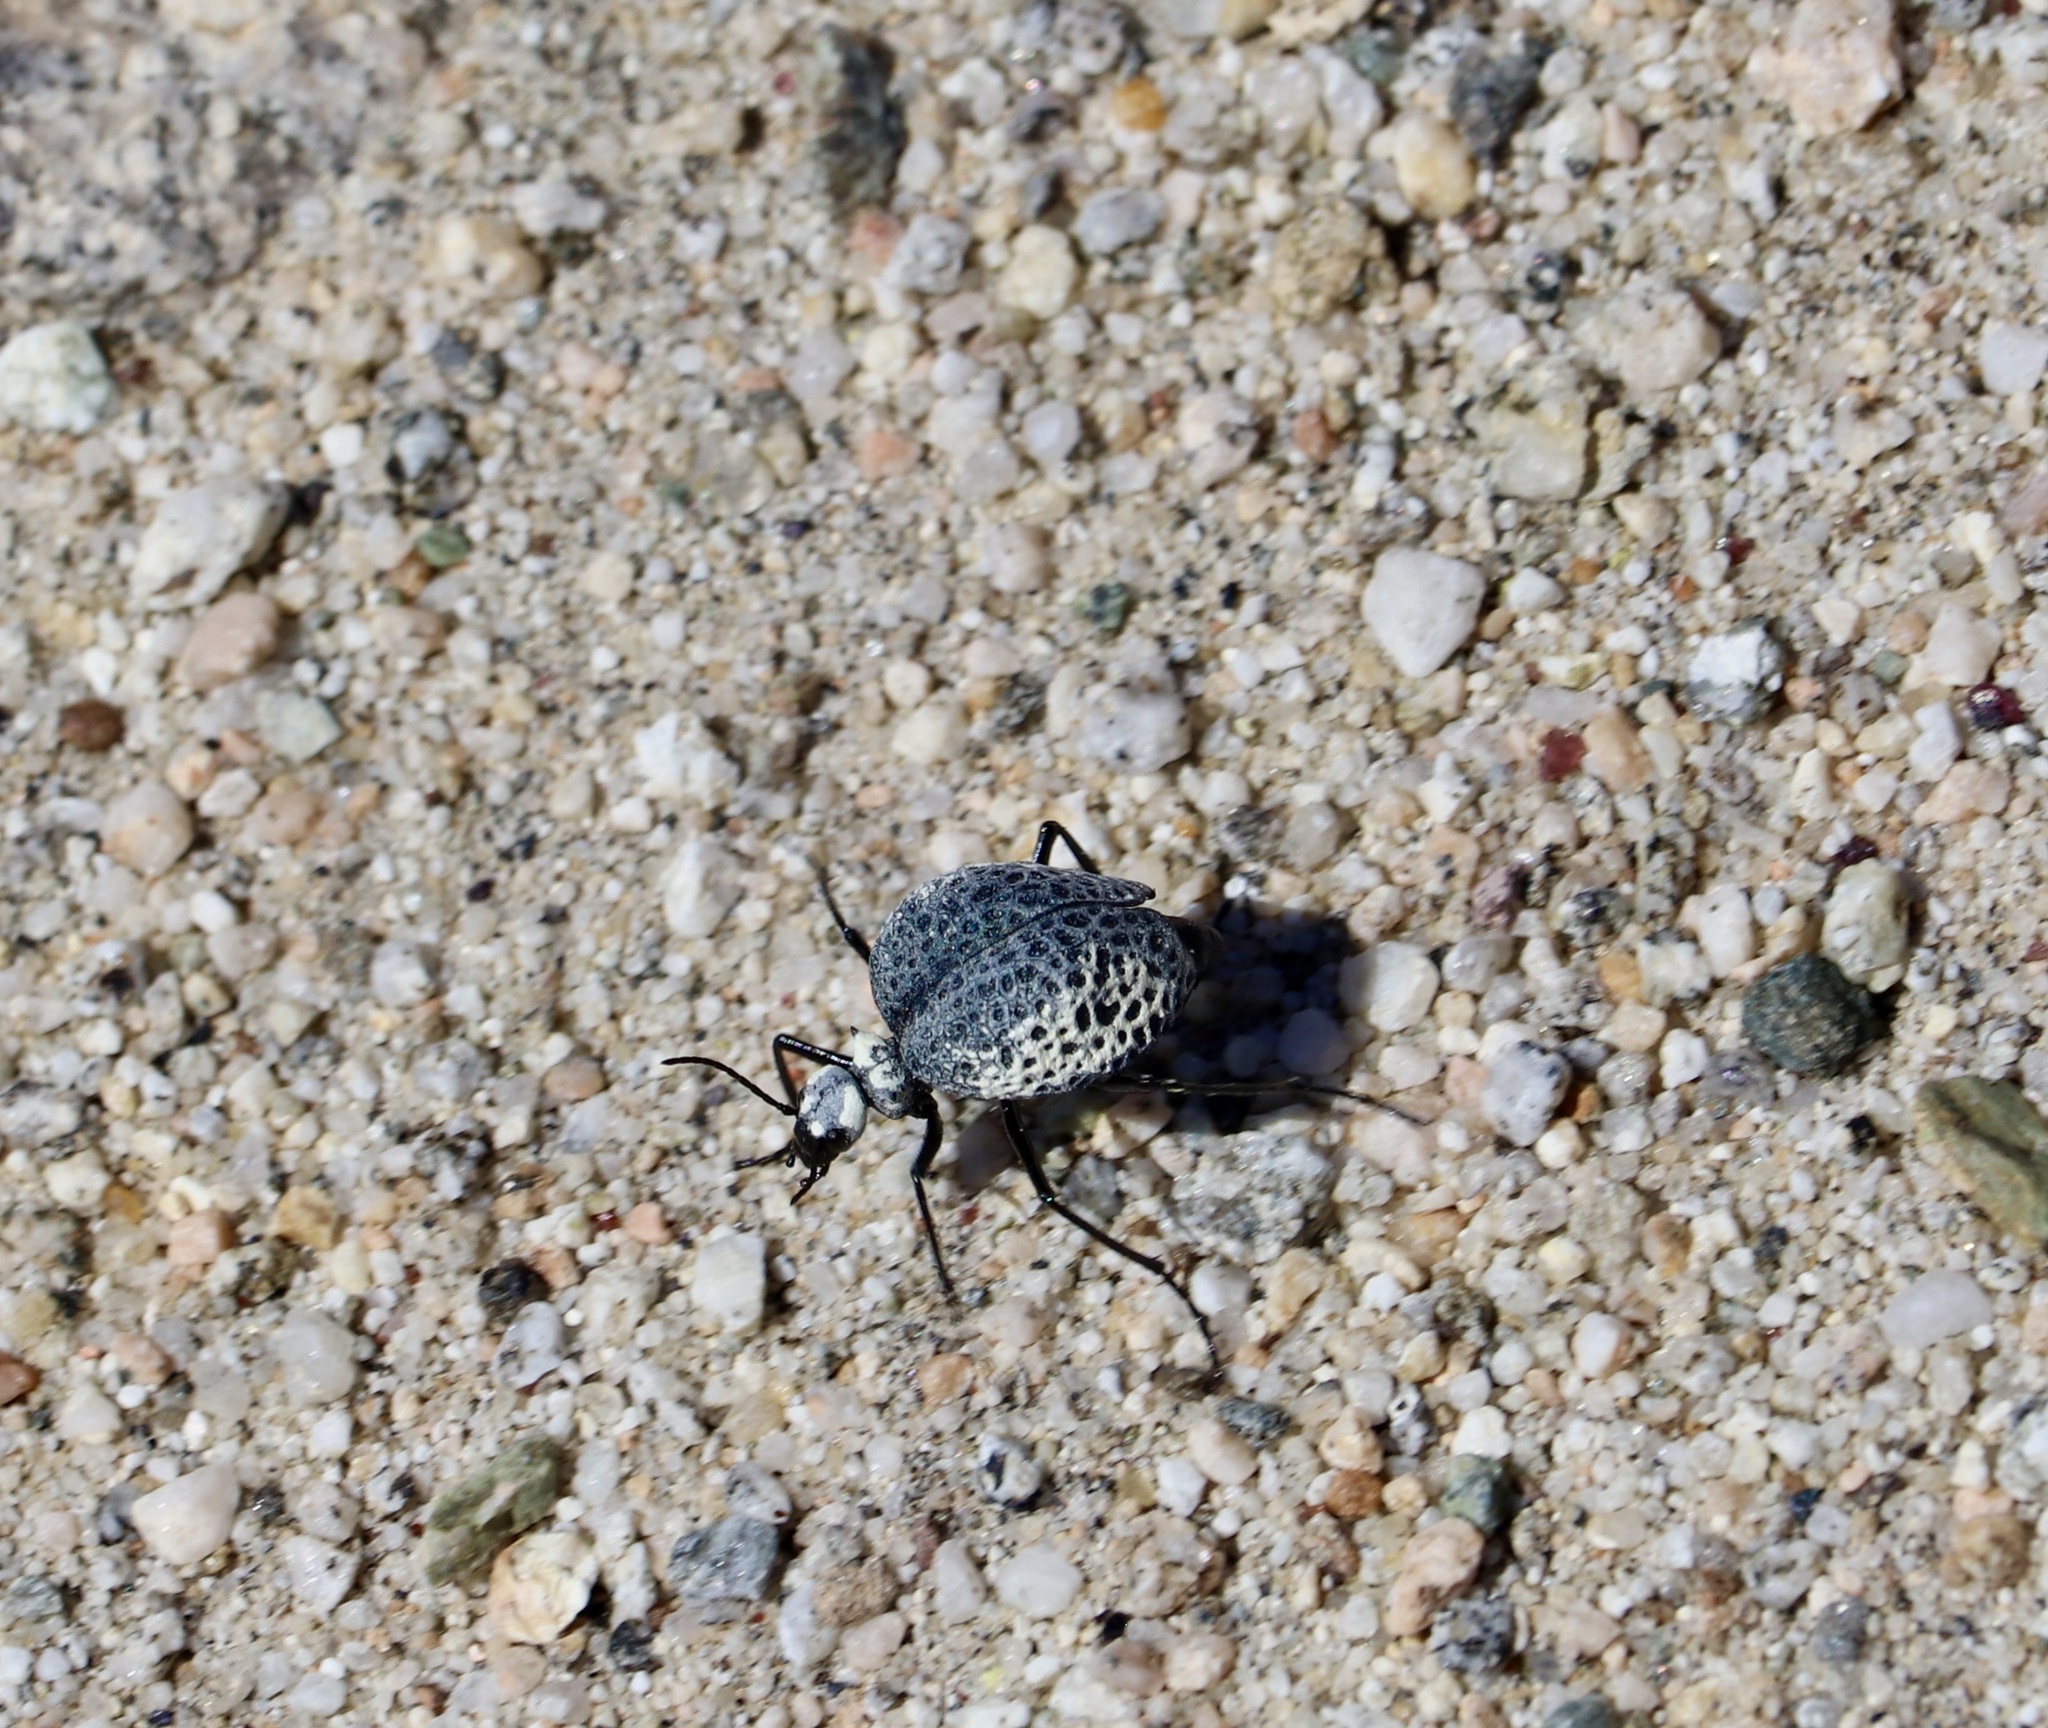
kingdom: Animalia
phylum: Arthropoda
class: Insecta
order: Coleoptera
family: Meloidae
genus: Cysteodemus
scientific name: Cysteodemus armatus
